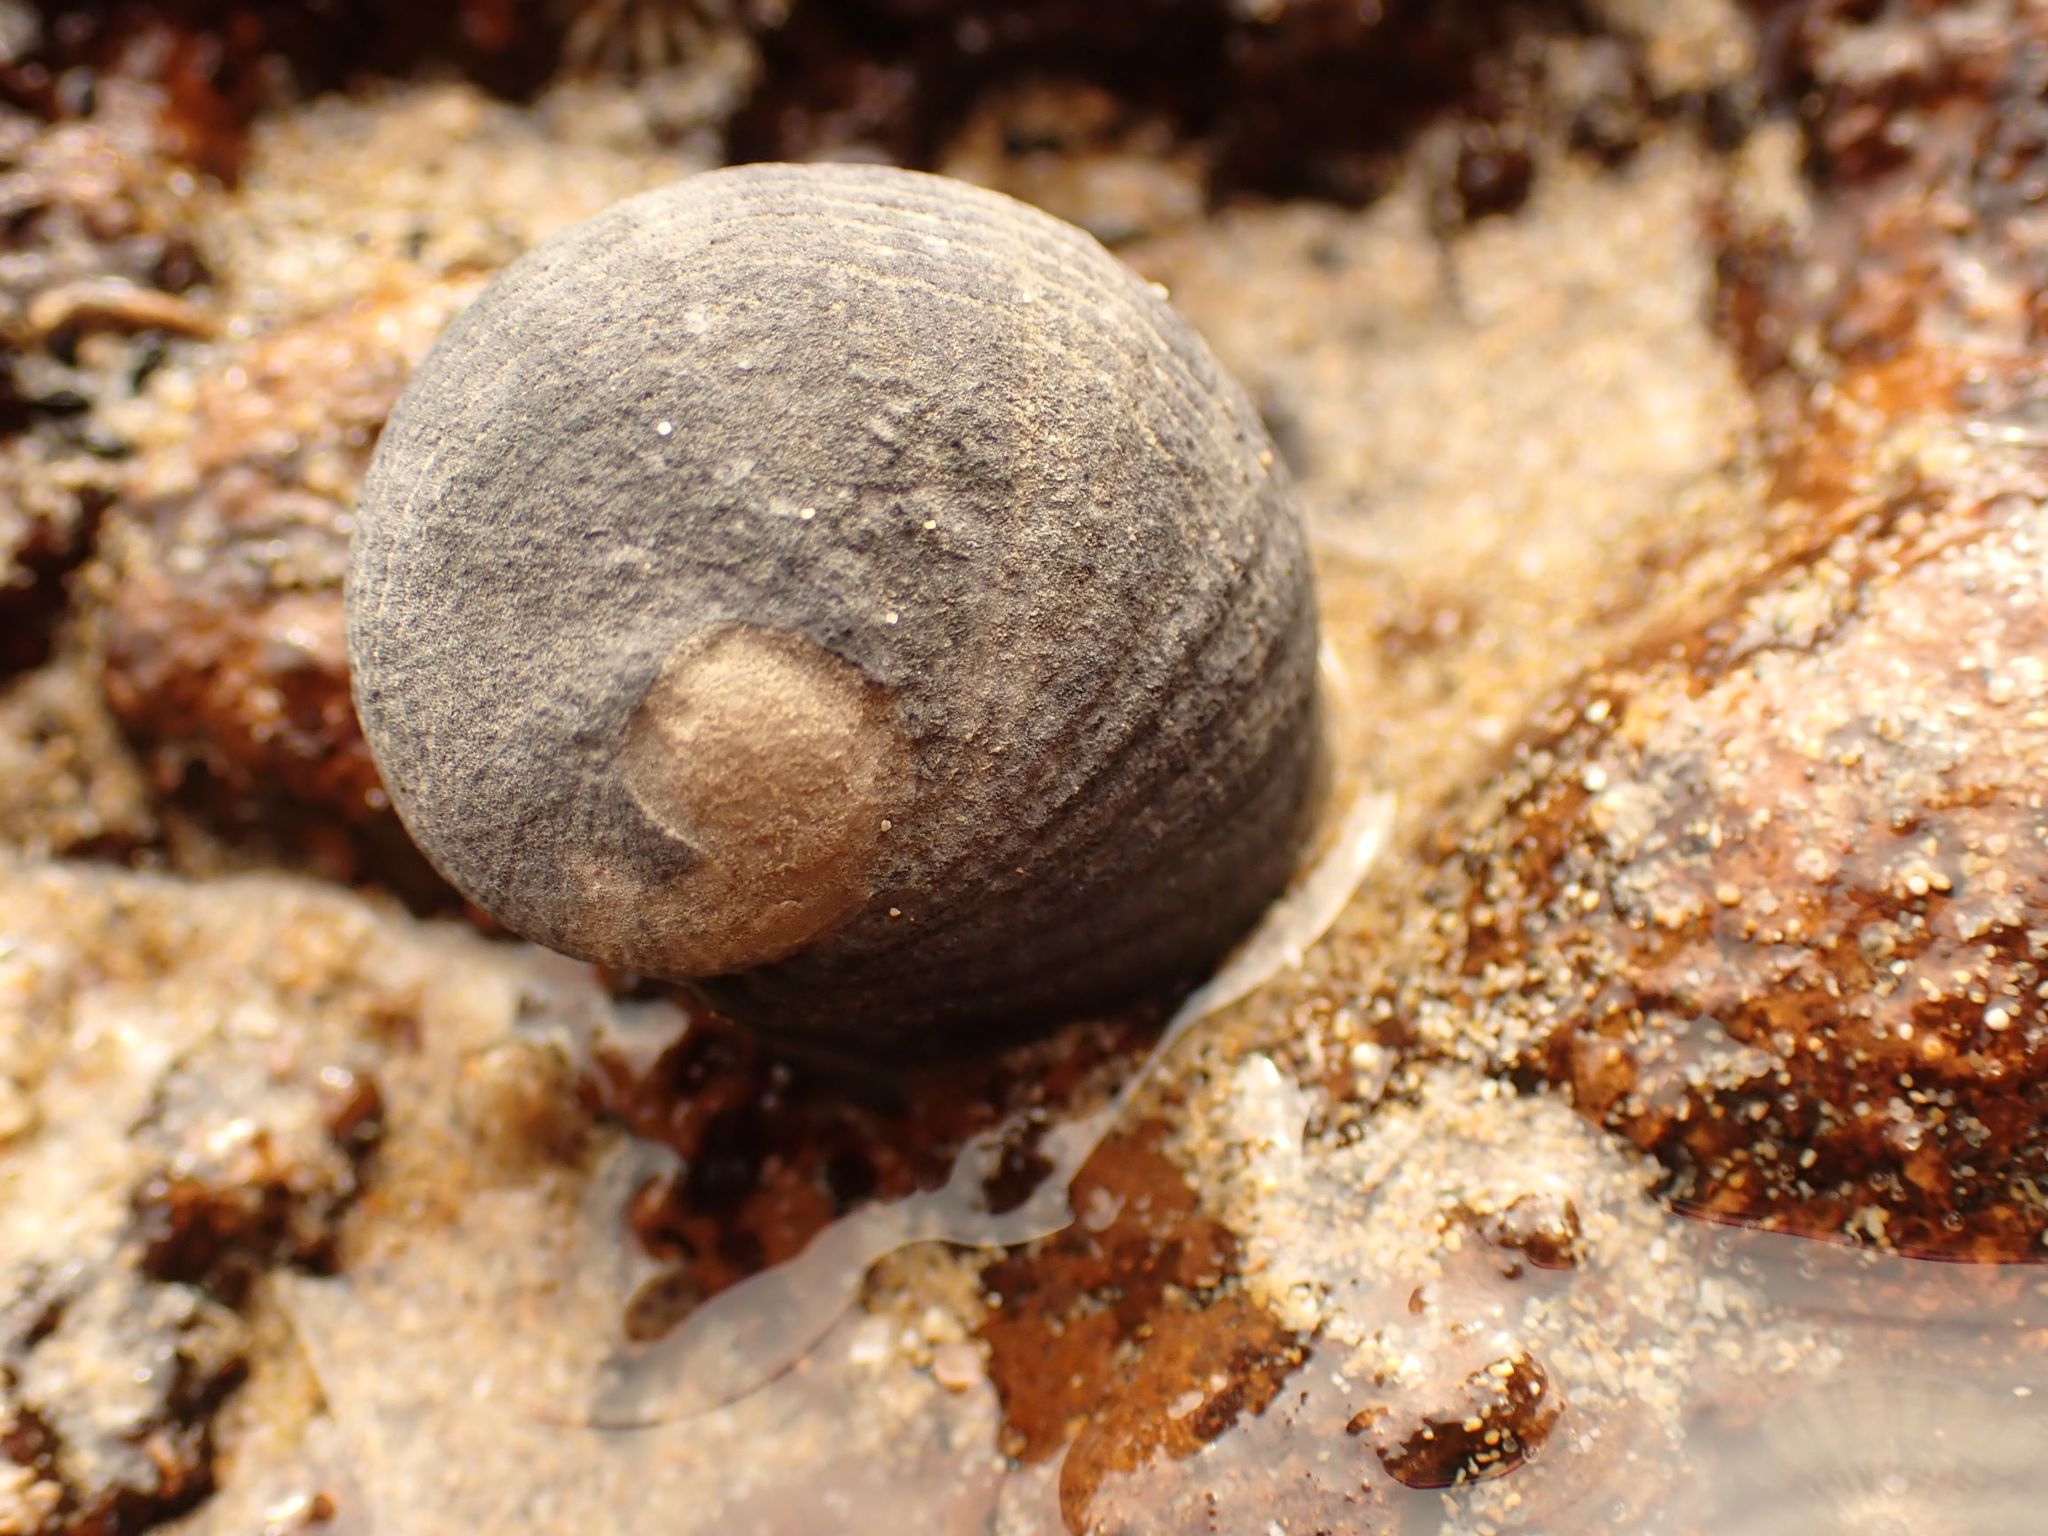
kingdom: Animalia
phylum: Mollusca
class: Gastropoda
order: Cycloneritida
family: Neritidae
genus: Nerita
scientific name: Nerita atramentosa
